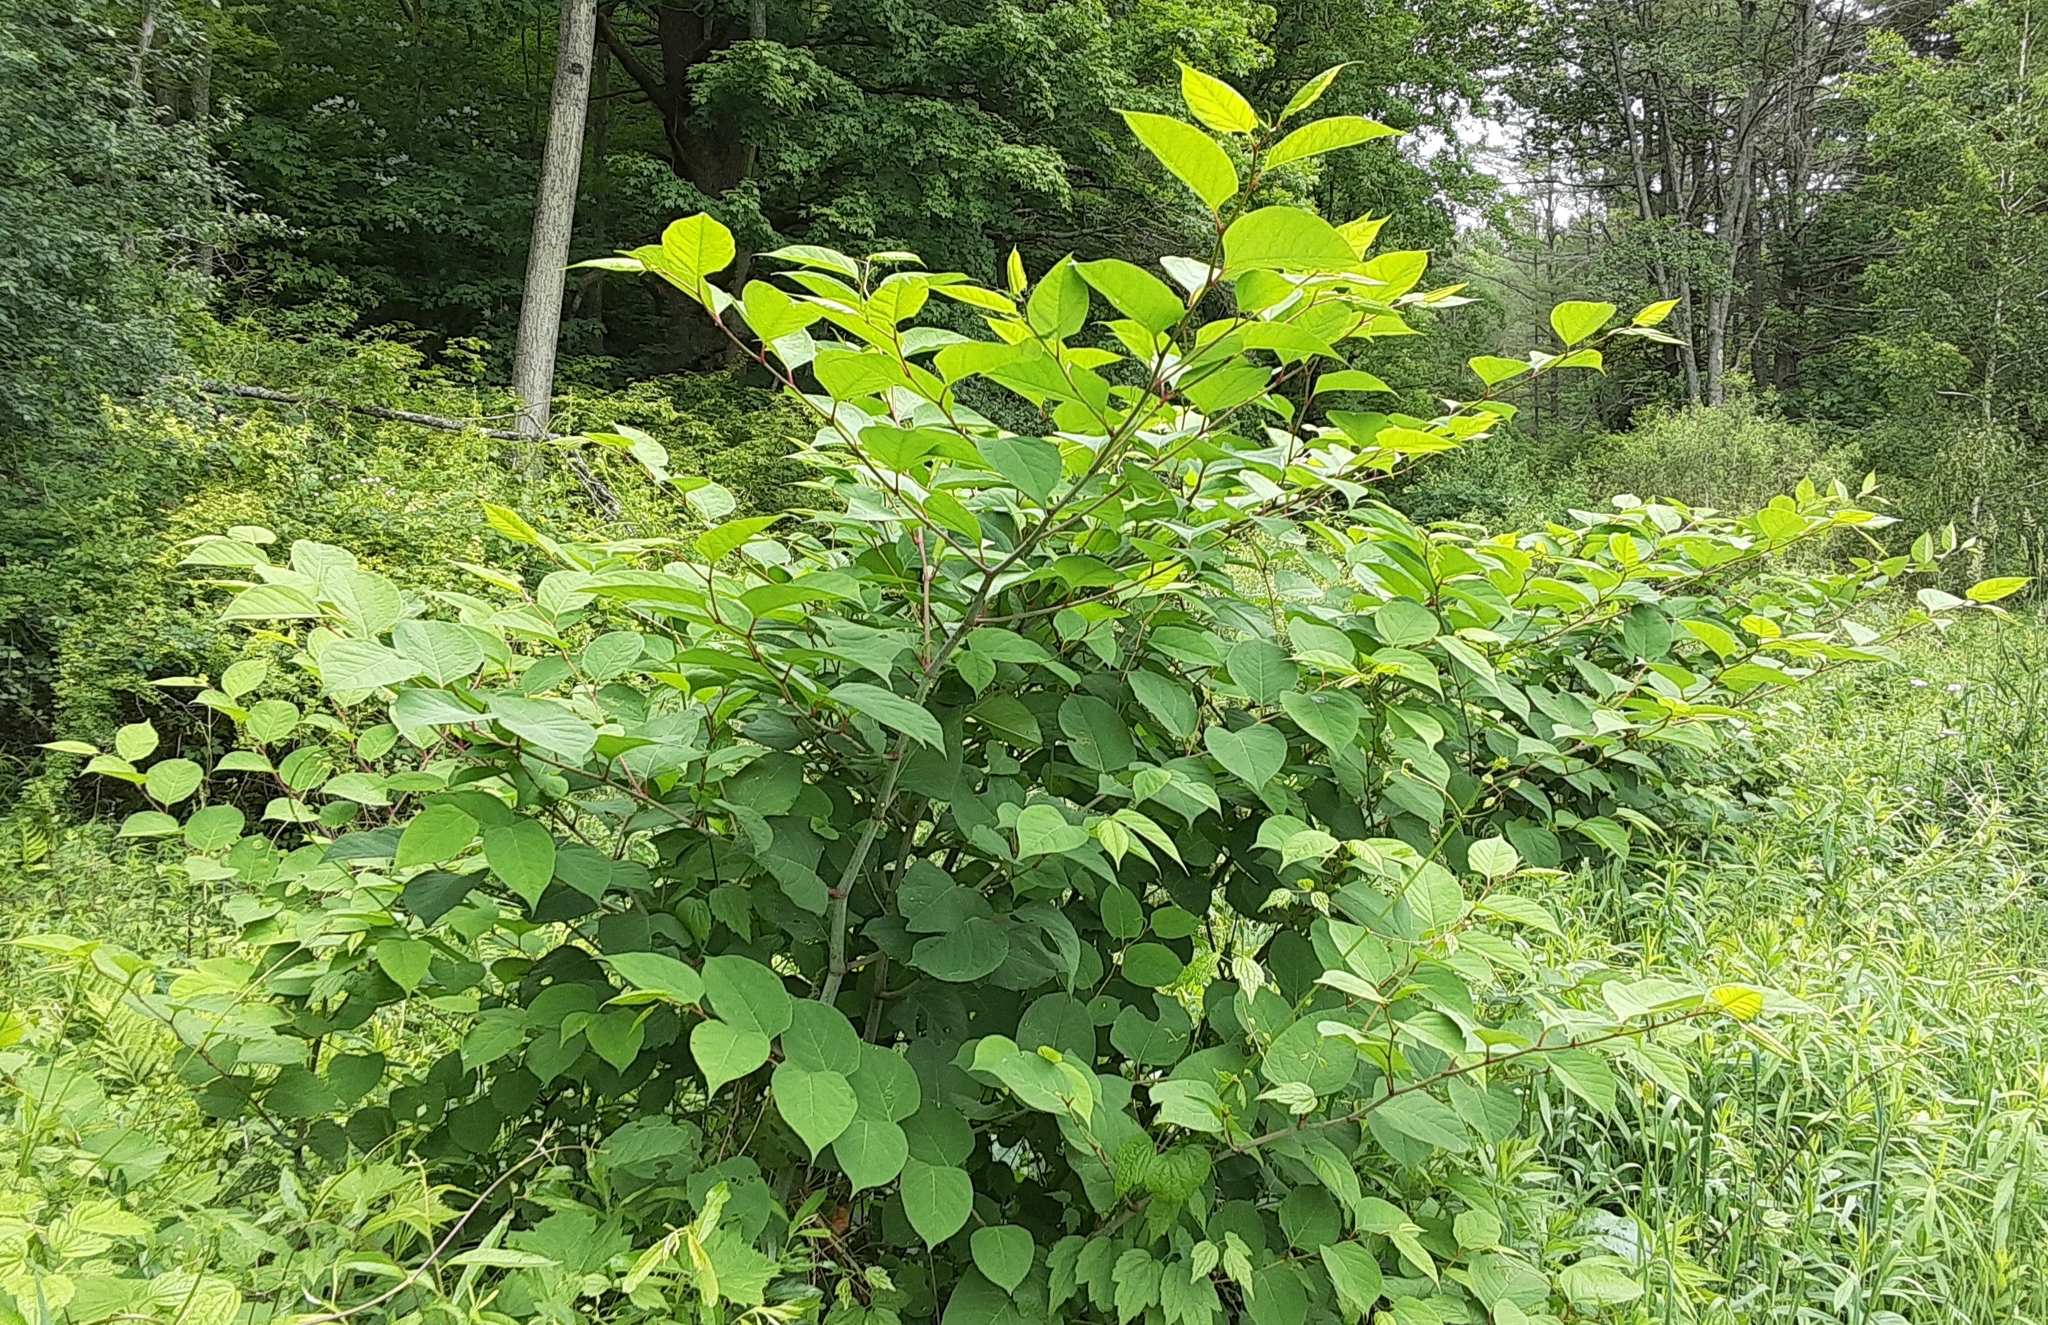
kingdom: Plantae
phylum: Tracheophyta
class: Magnoliopsida
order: Caryophyllales
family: Polygonaceae
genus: Reynoutria
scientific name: Reynoutria japonica
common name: Japanese knotweed
